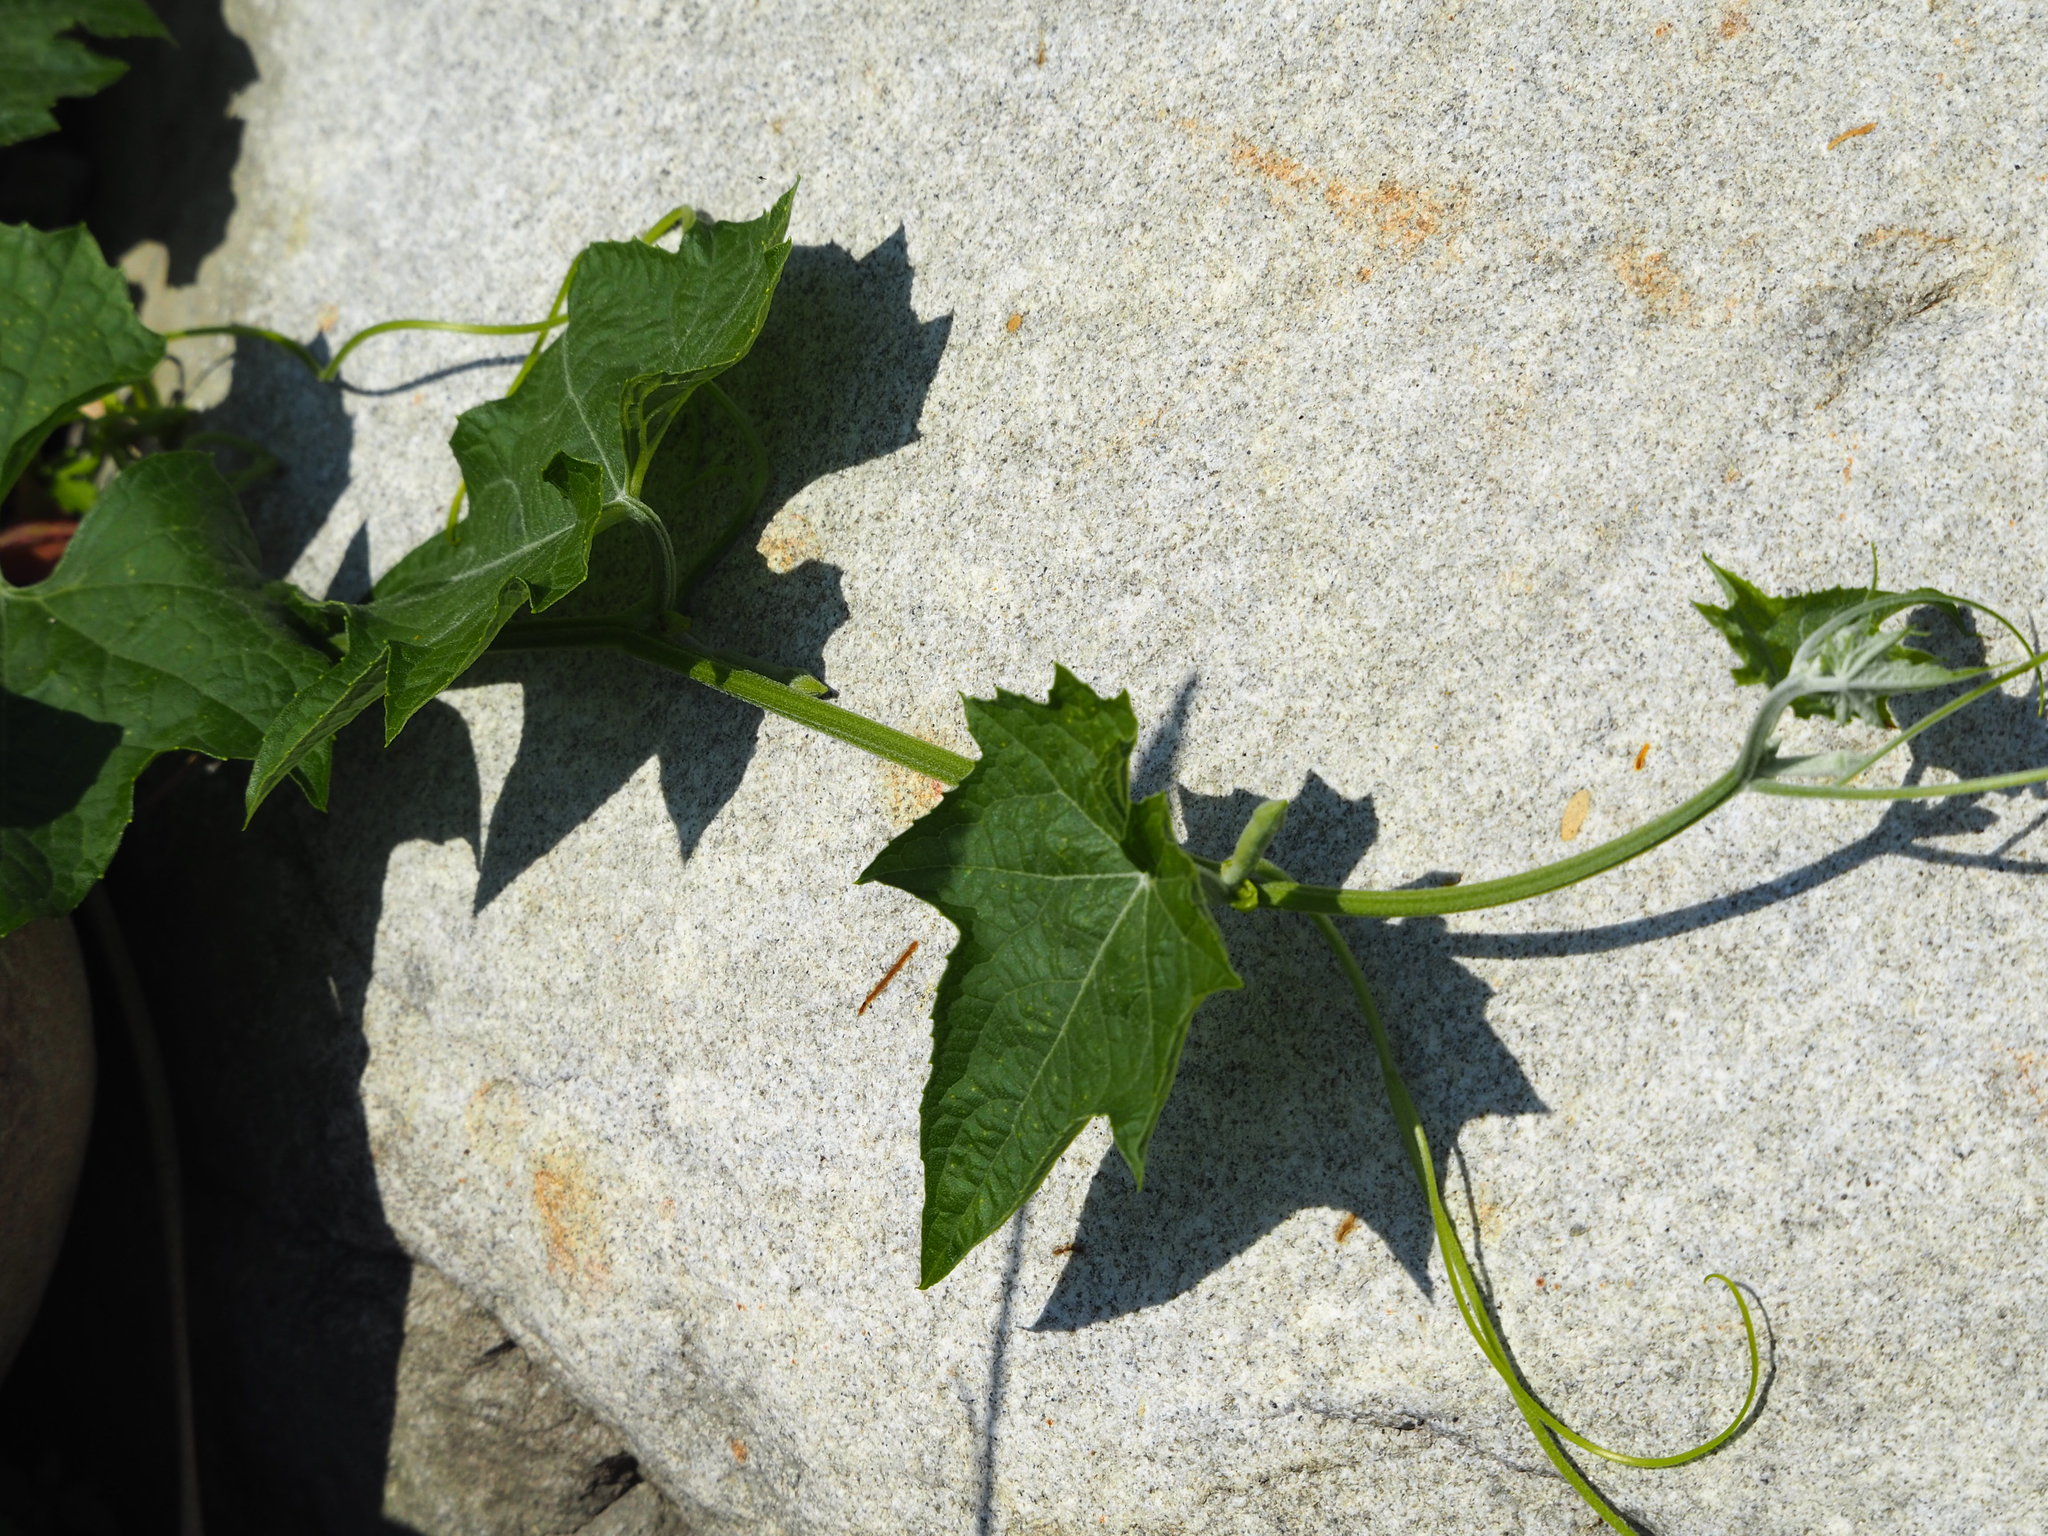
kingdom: Plantae
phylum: Tracheophyta
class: Magnoliopsida
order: Cucurbitales
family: Cucurbitaceae
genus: Luffa
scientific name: Luffa aegyptiaca
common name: Sponge gourd
